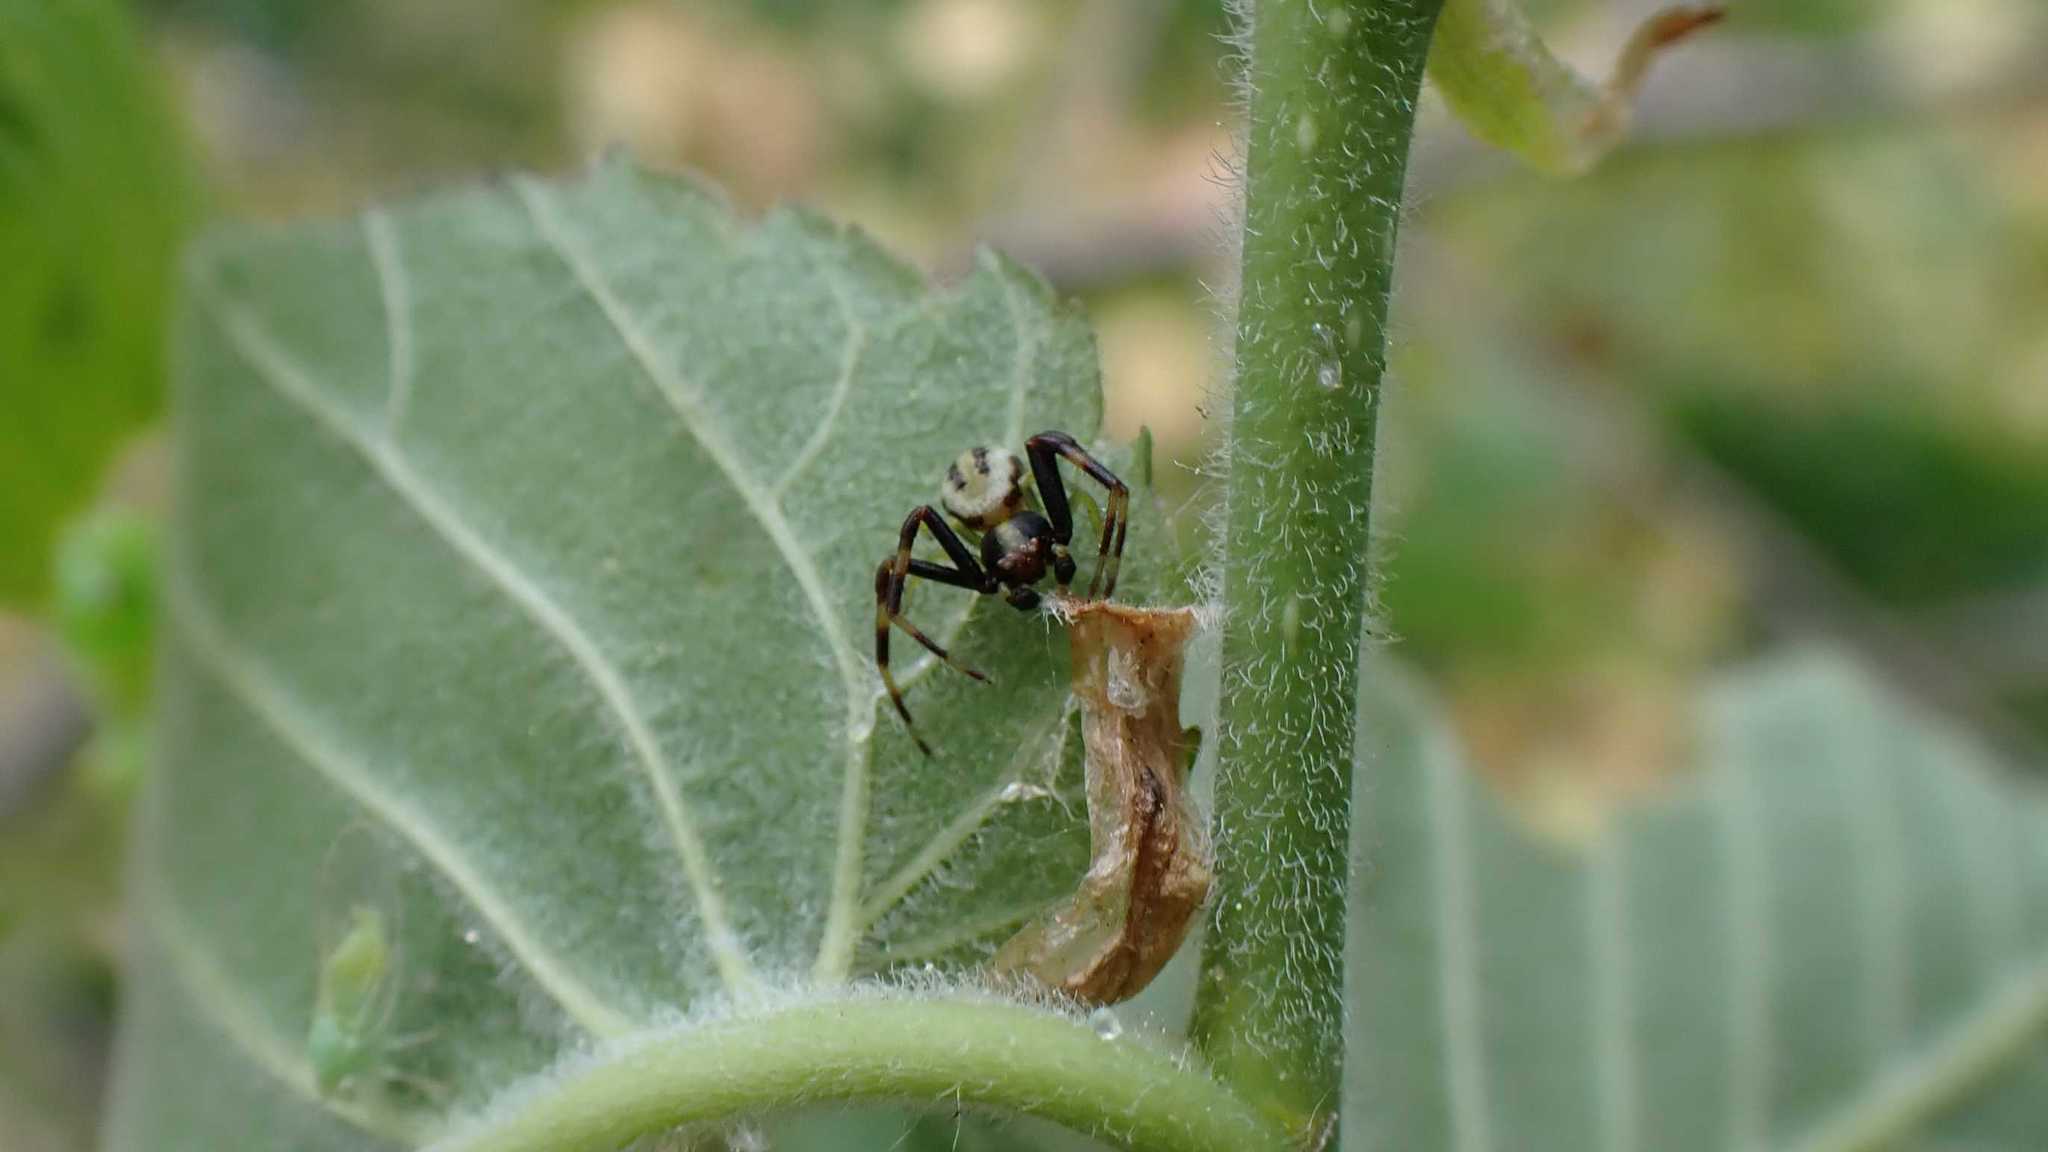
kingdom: Animalia
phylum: Arthropoda
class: Arachnida
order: Araneae
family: Thomisidae
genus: Misumena
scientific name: Misumena vatia
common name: Goldenrod crab spider
